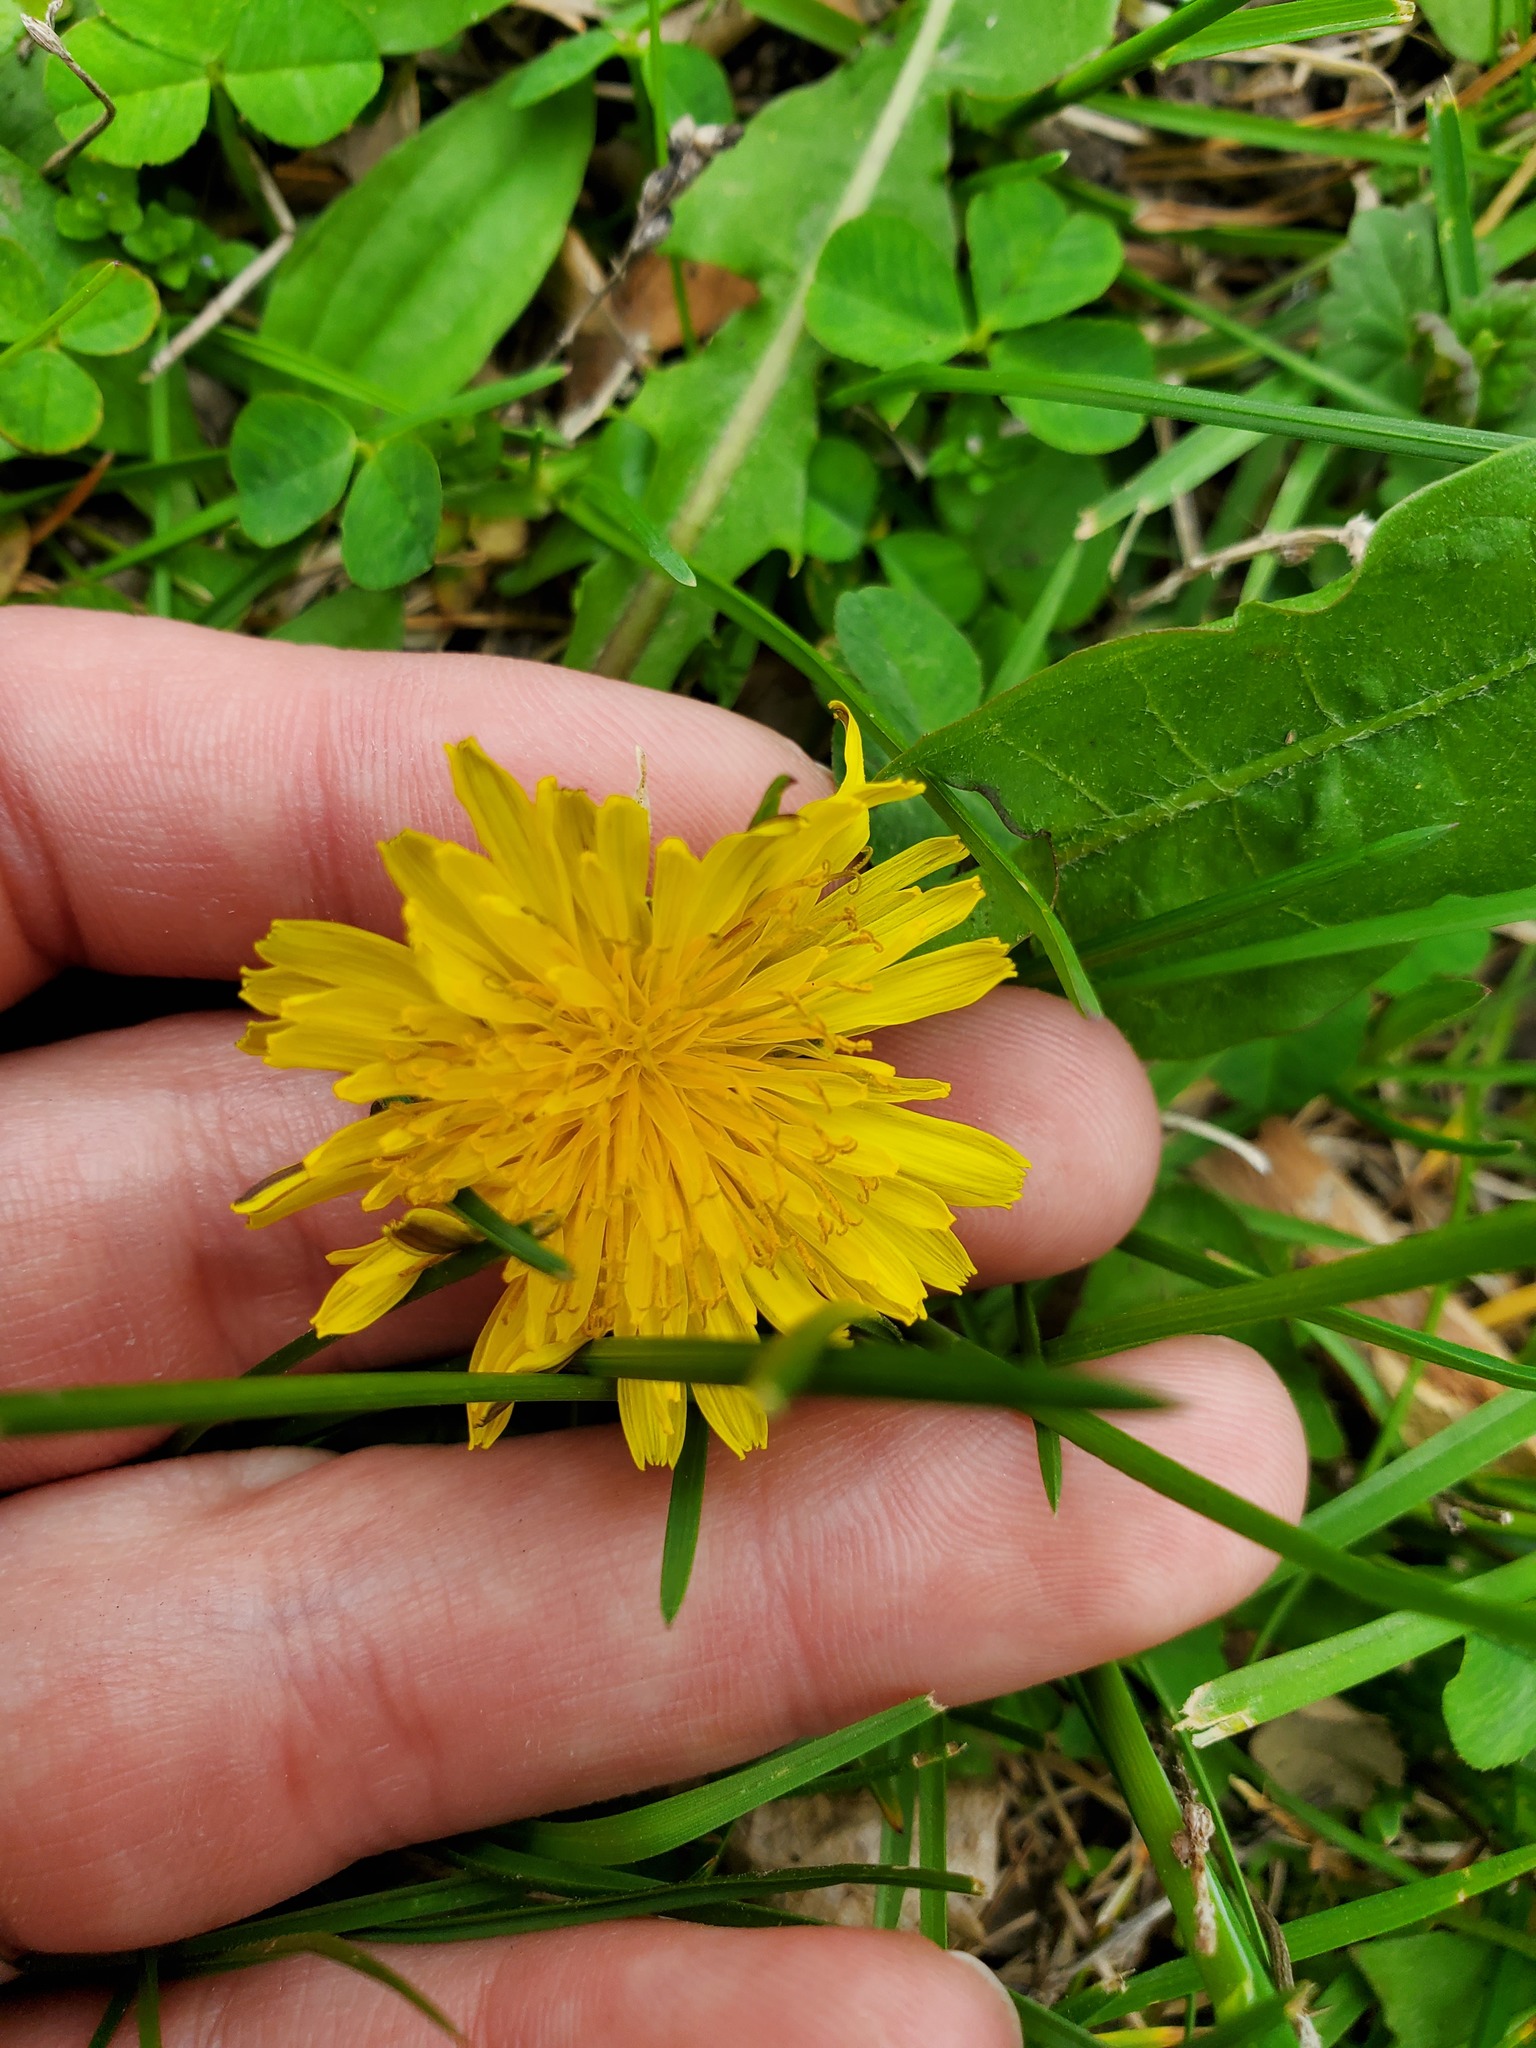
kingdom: Plantae
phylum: Tracheophyta
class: Magnoliopsida
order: Asterales
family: Asteraceae
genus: Taraxacum
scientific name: Taraxacum officinale
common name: Common dandelion
